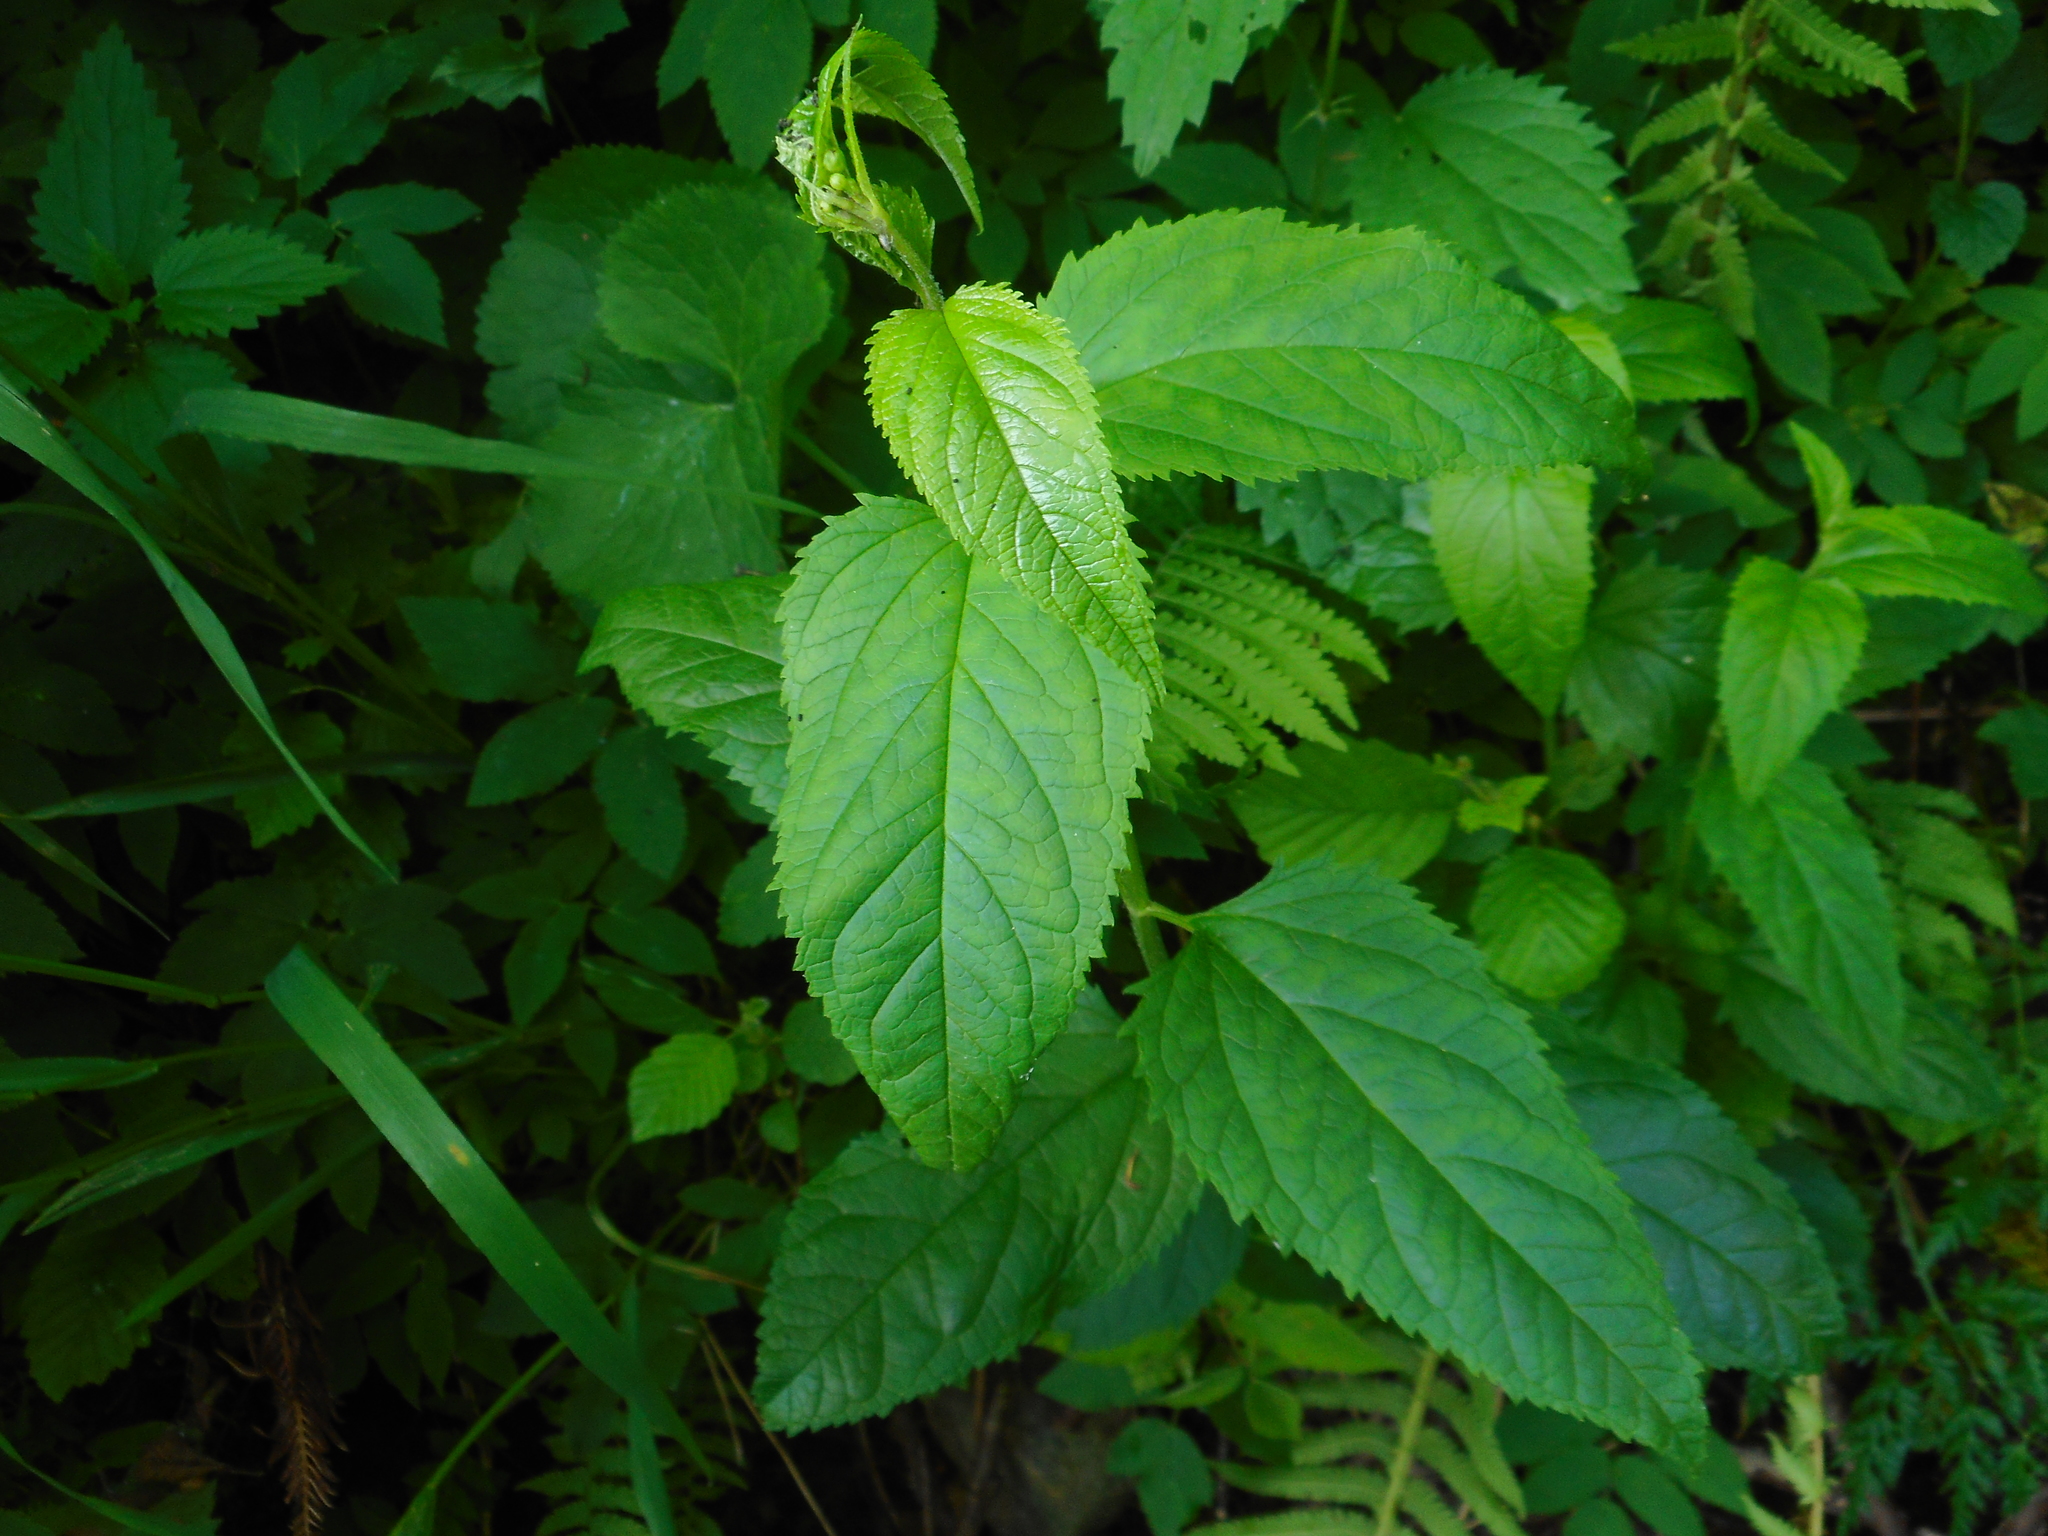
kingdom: Plantae
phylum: Tracheophyta
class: Magnoliopsida
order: Lamiales
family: Scrophulariaceae
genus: Scrophularia
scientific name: Scrophularia nodosa
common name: Common figwort
